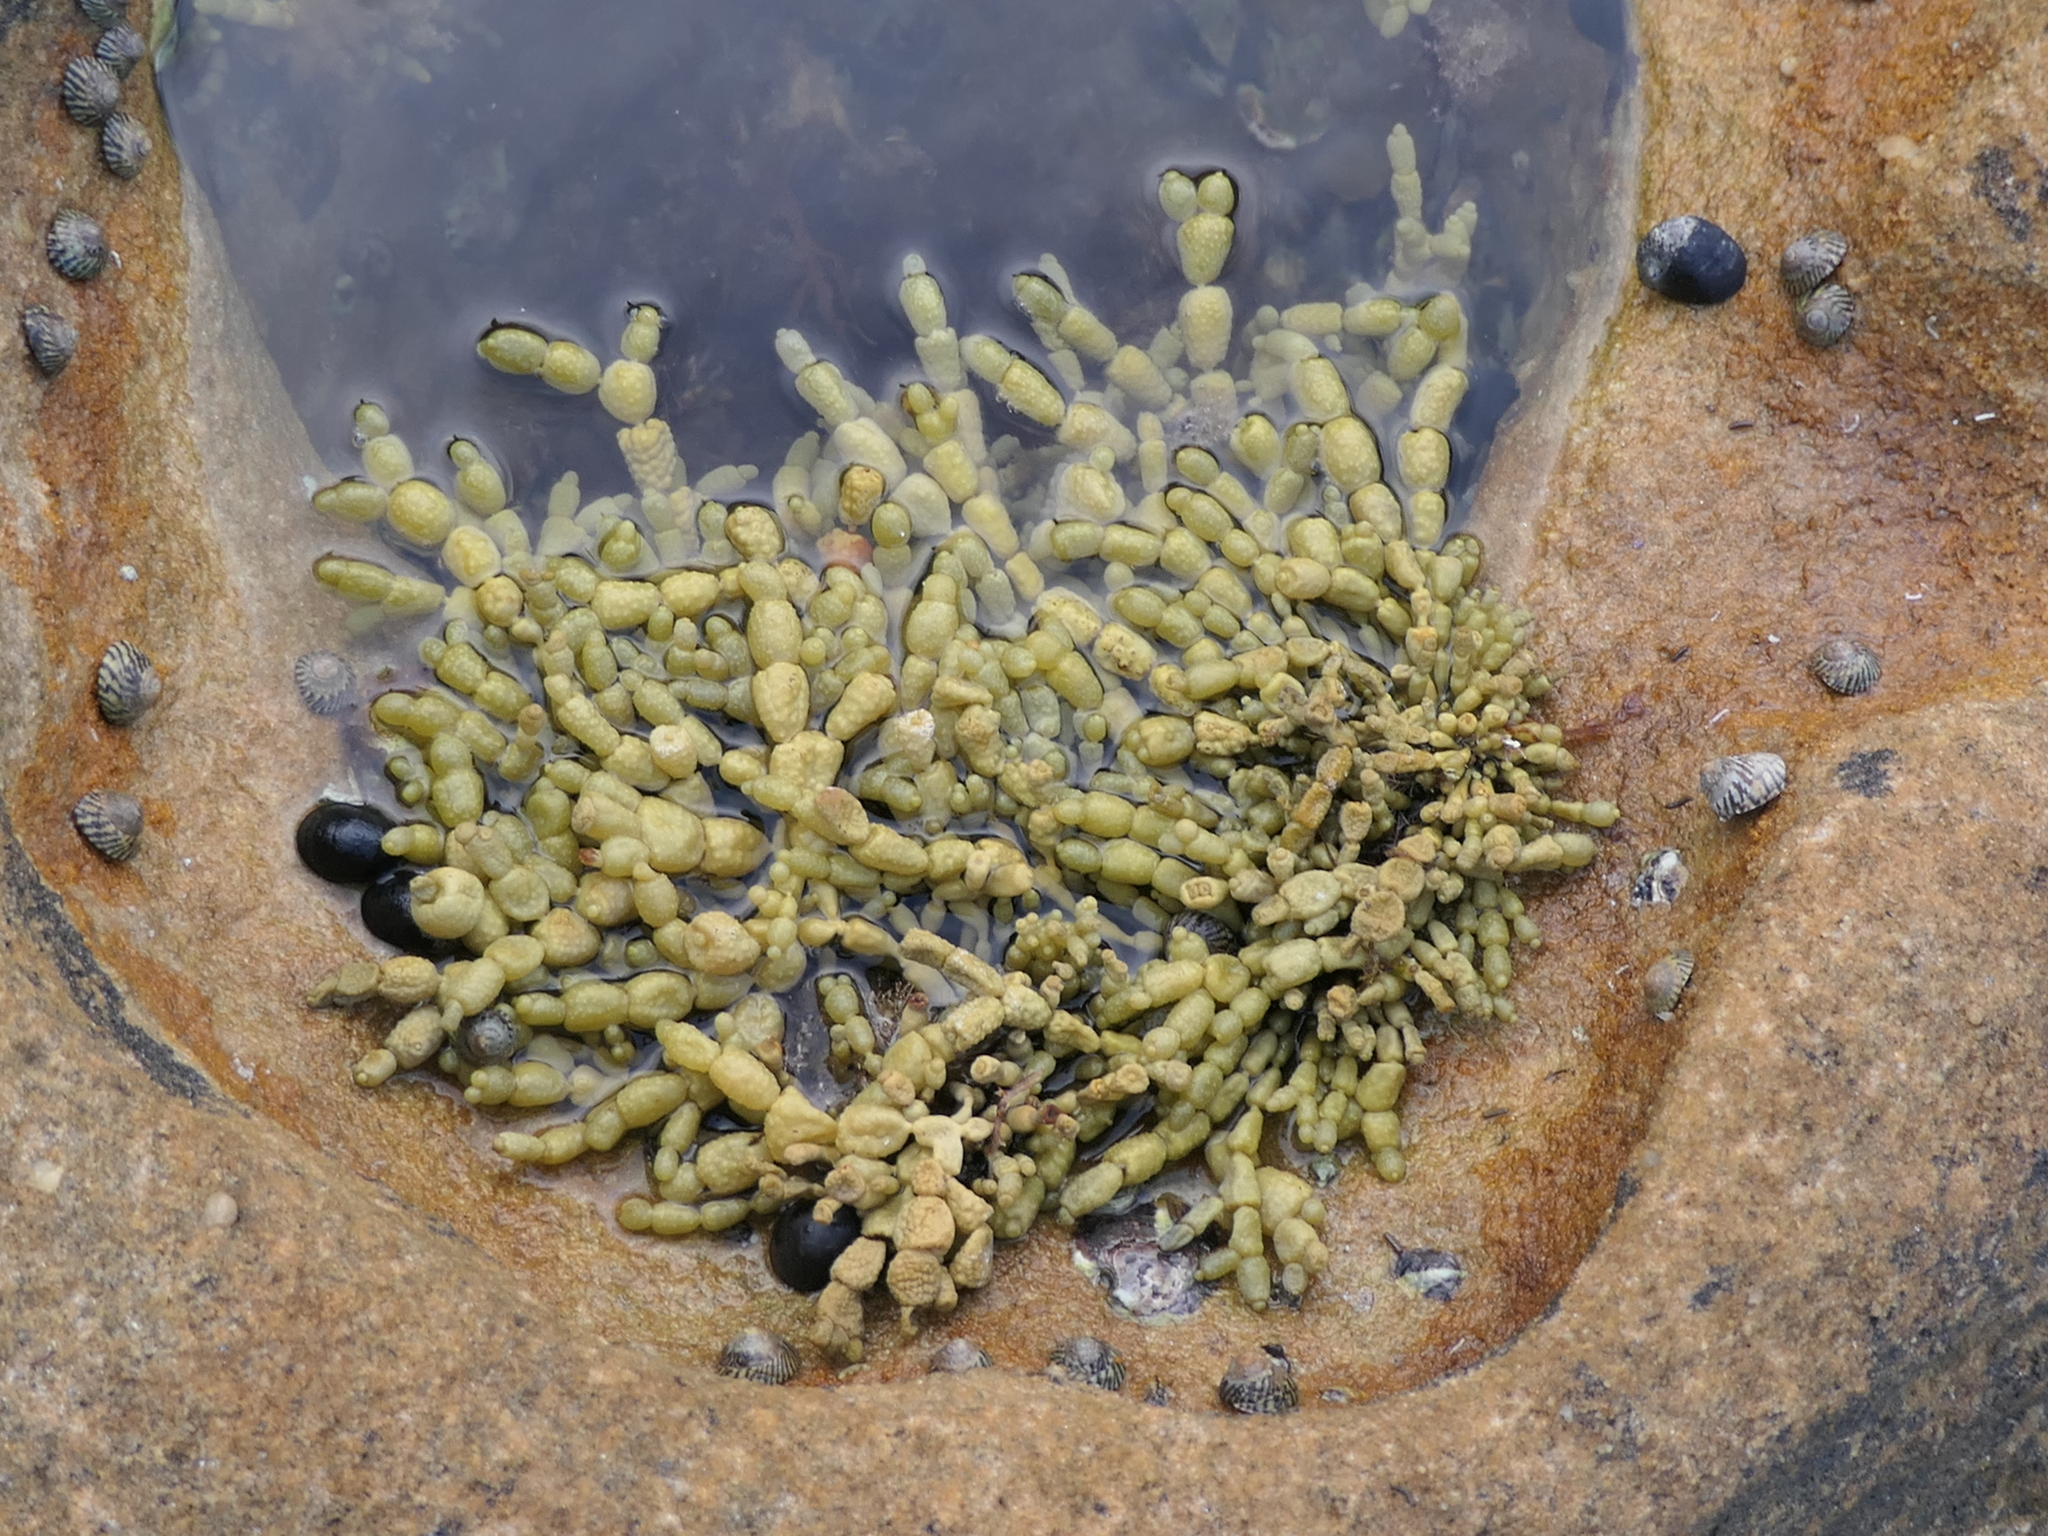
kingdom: Chromista
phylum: Ochrophyta
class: Phaeophyceae
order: Fucales
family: Hormosiraceae
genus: Hormosira
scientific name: Hormosira banksii
